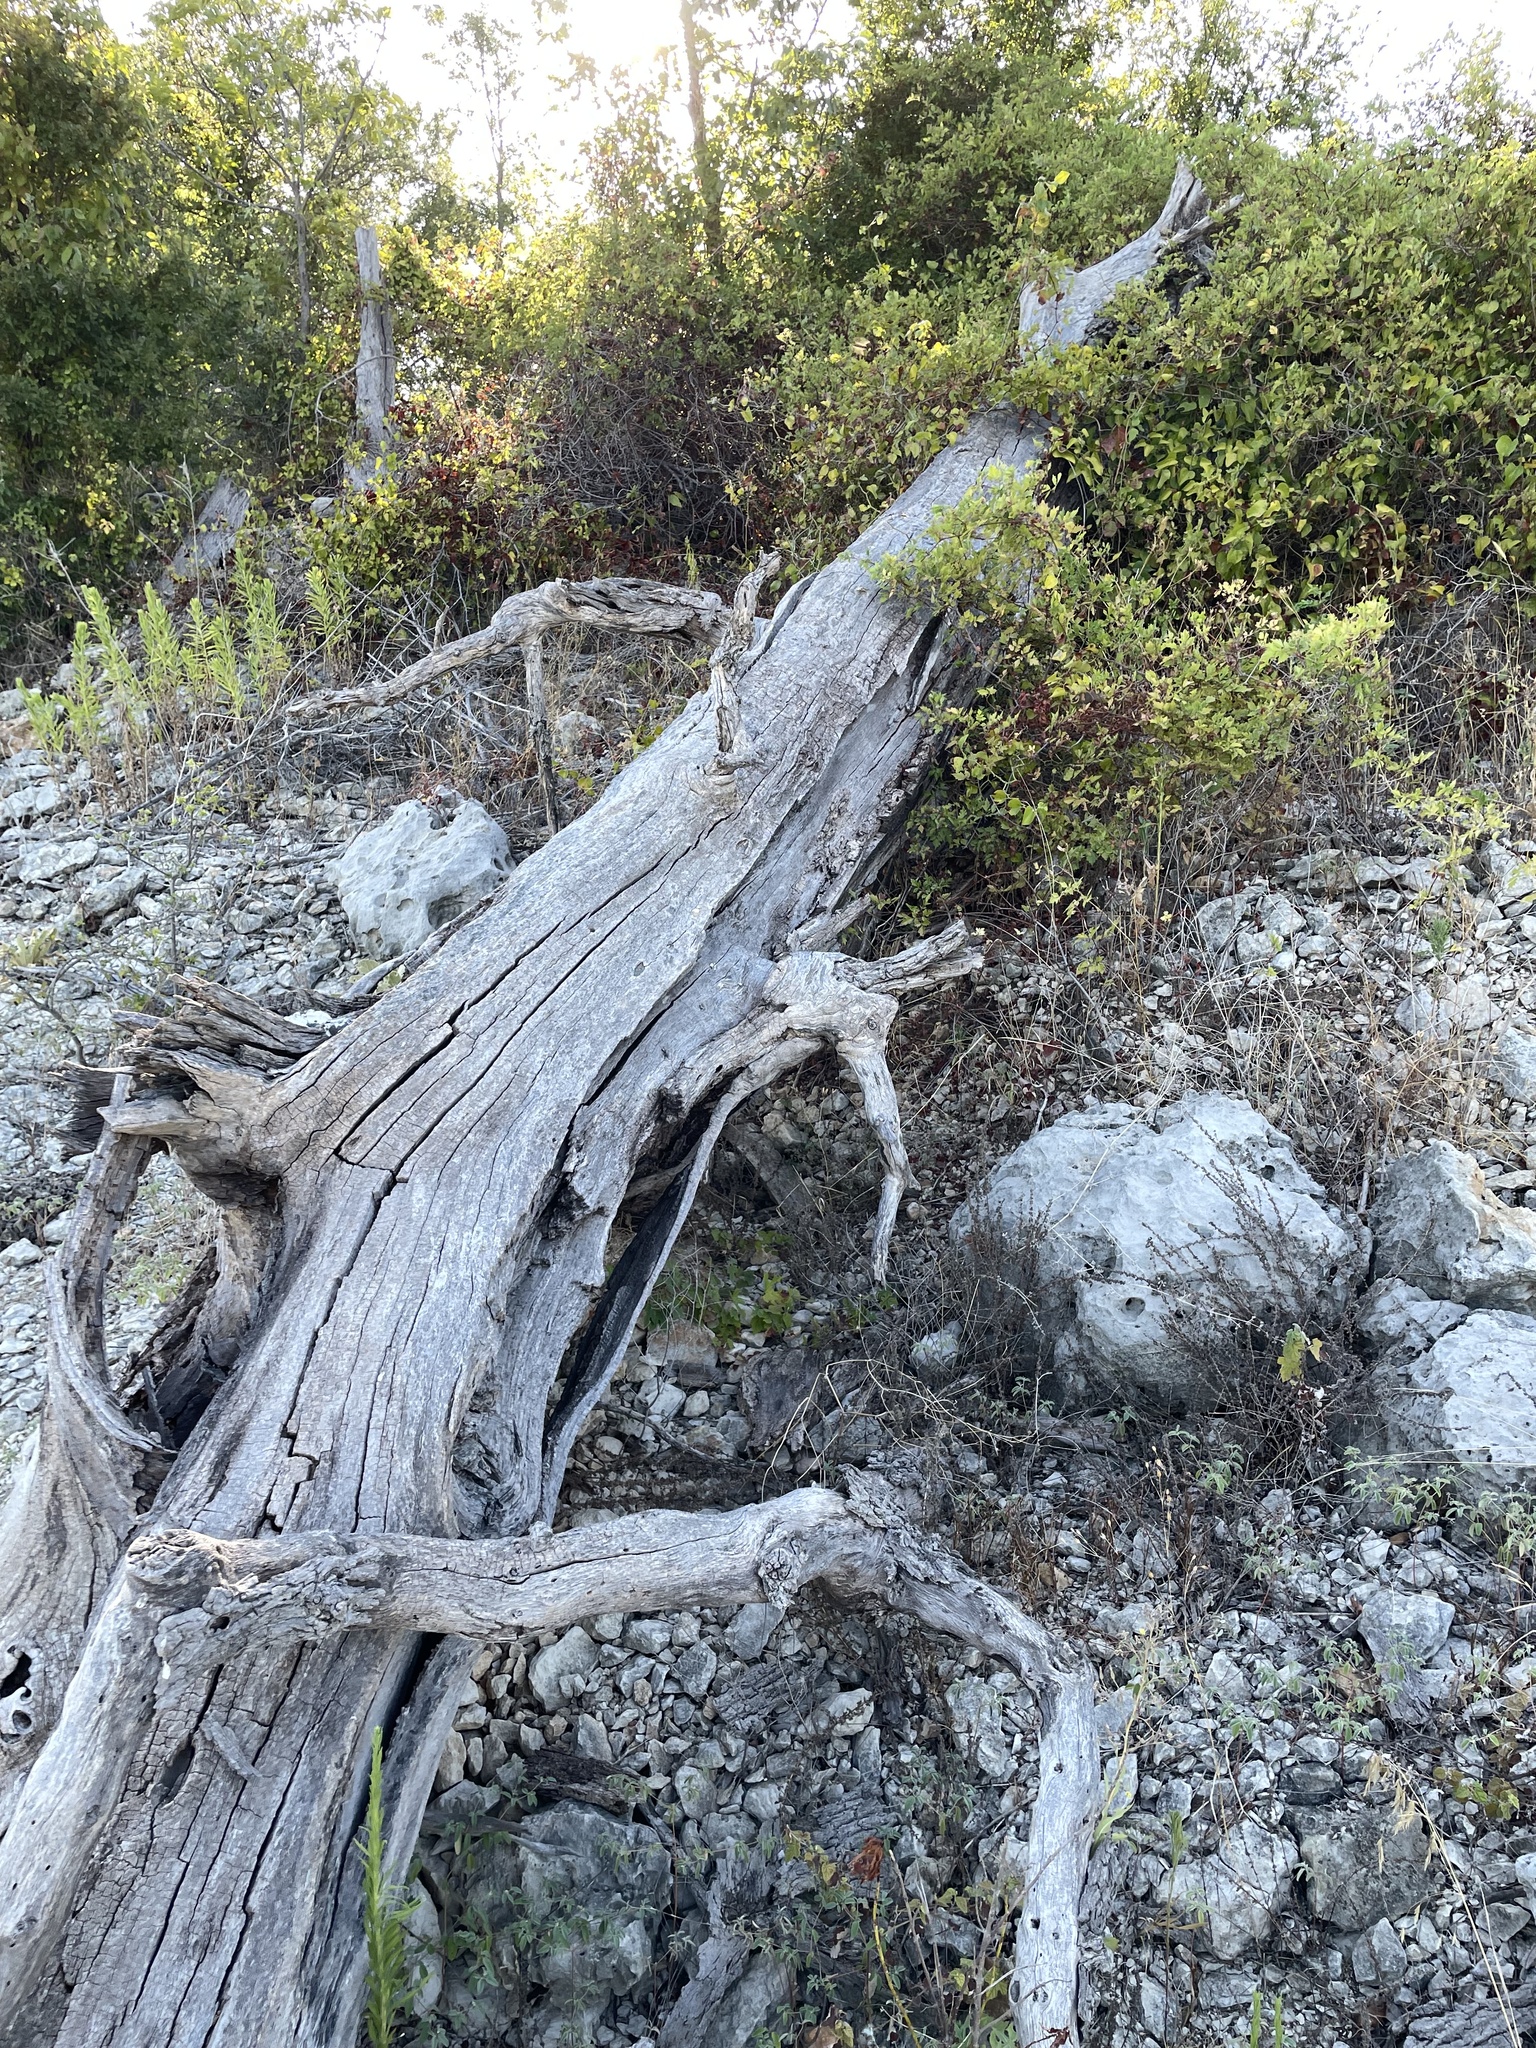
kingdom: Plantae
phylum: Tracheophyta
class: Magnoliopsida
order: Fagales
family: Fagaceae
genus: Quercus
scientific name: Quercus fusiformis
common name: Texas live oak
